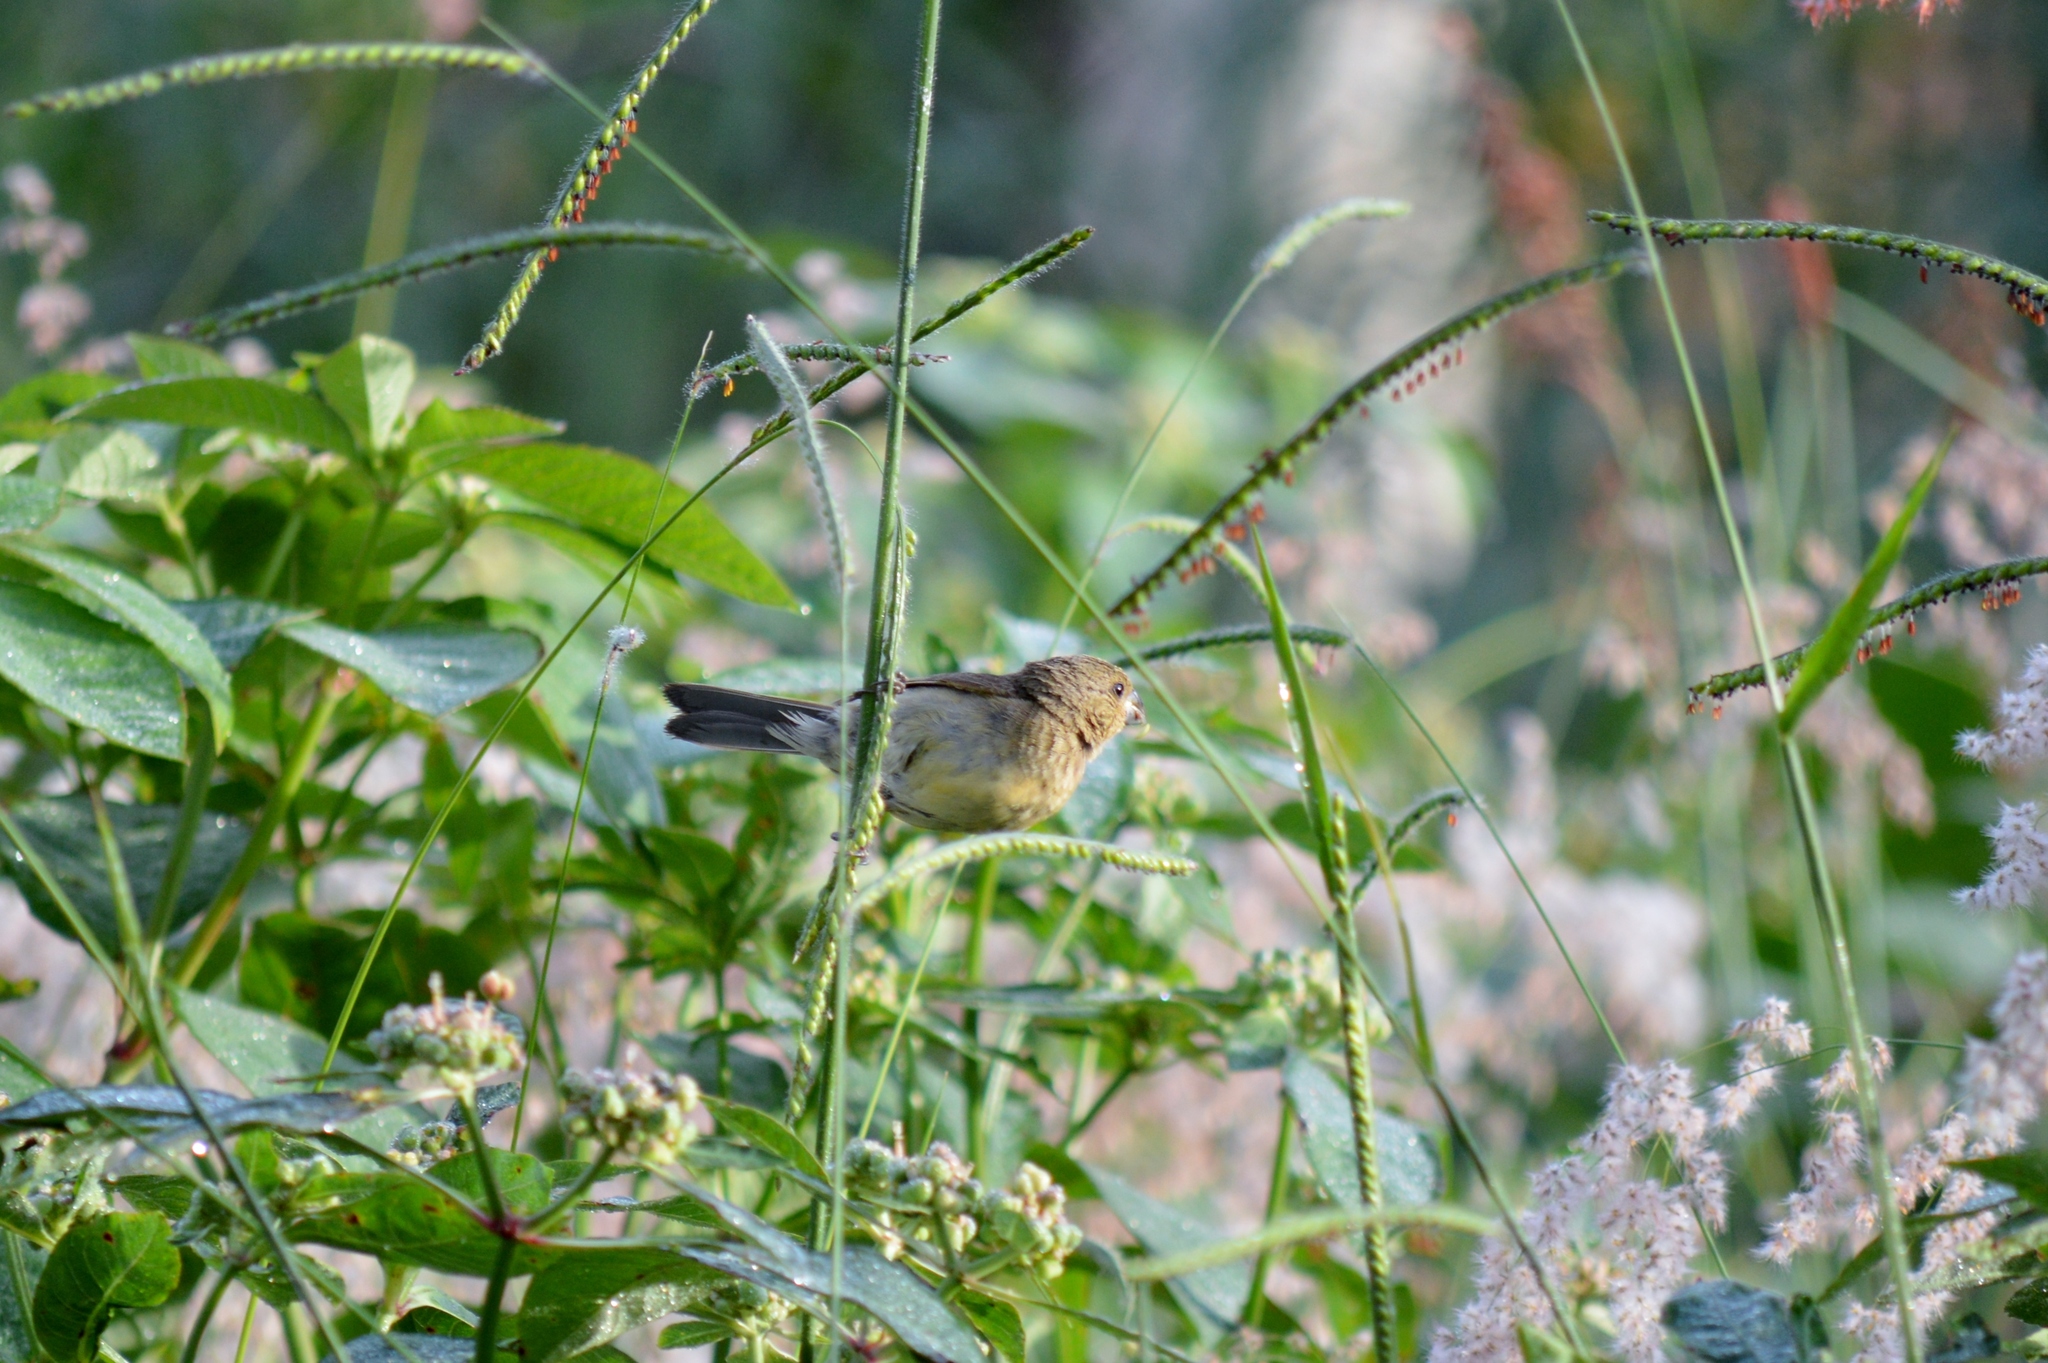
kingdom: Animalia
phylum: Chordata
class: Aves
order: Passeriformes
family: Thraupidae
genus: Sporophila
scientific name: Sporophila nigricollis
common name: Yellow-bellied seedeater
